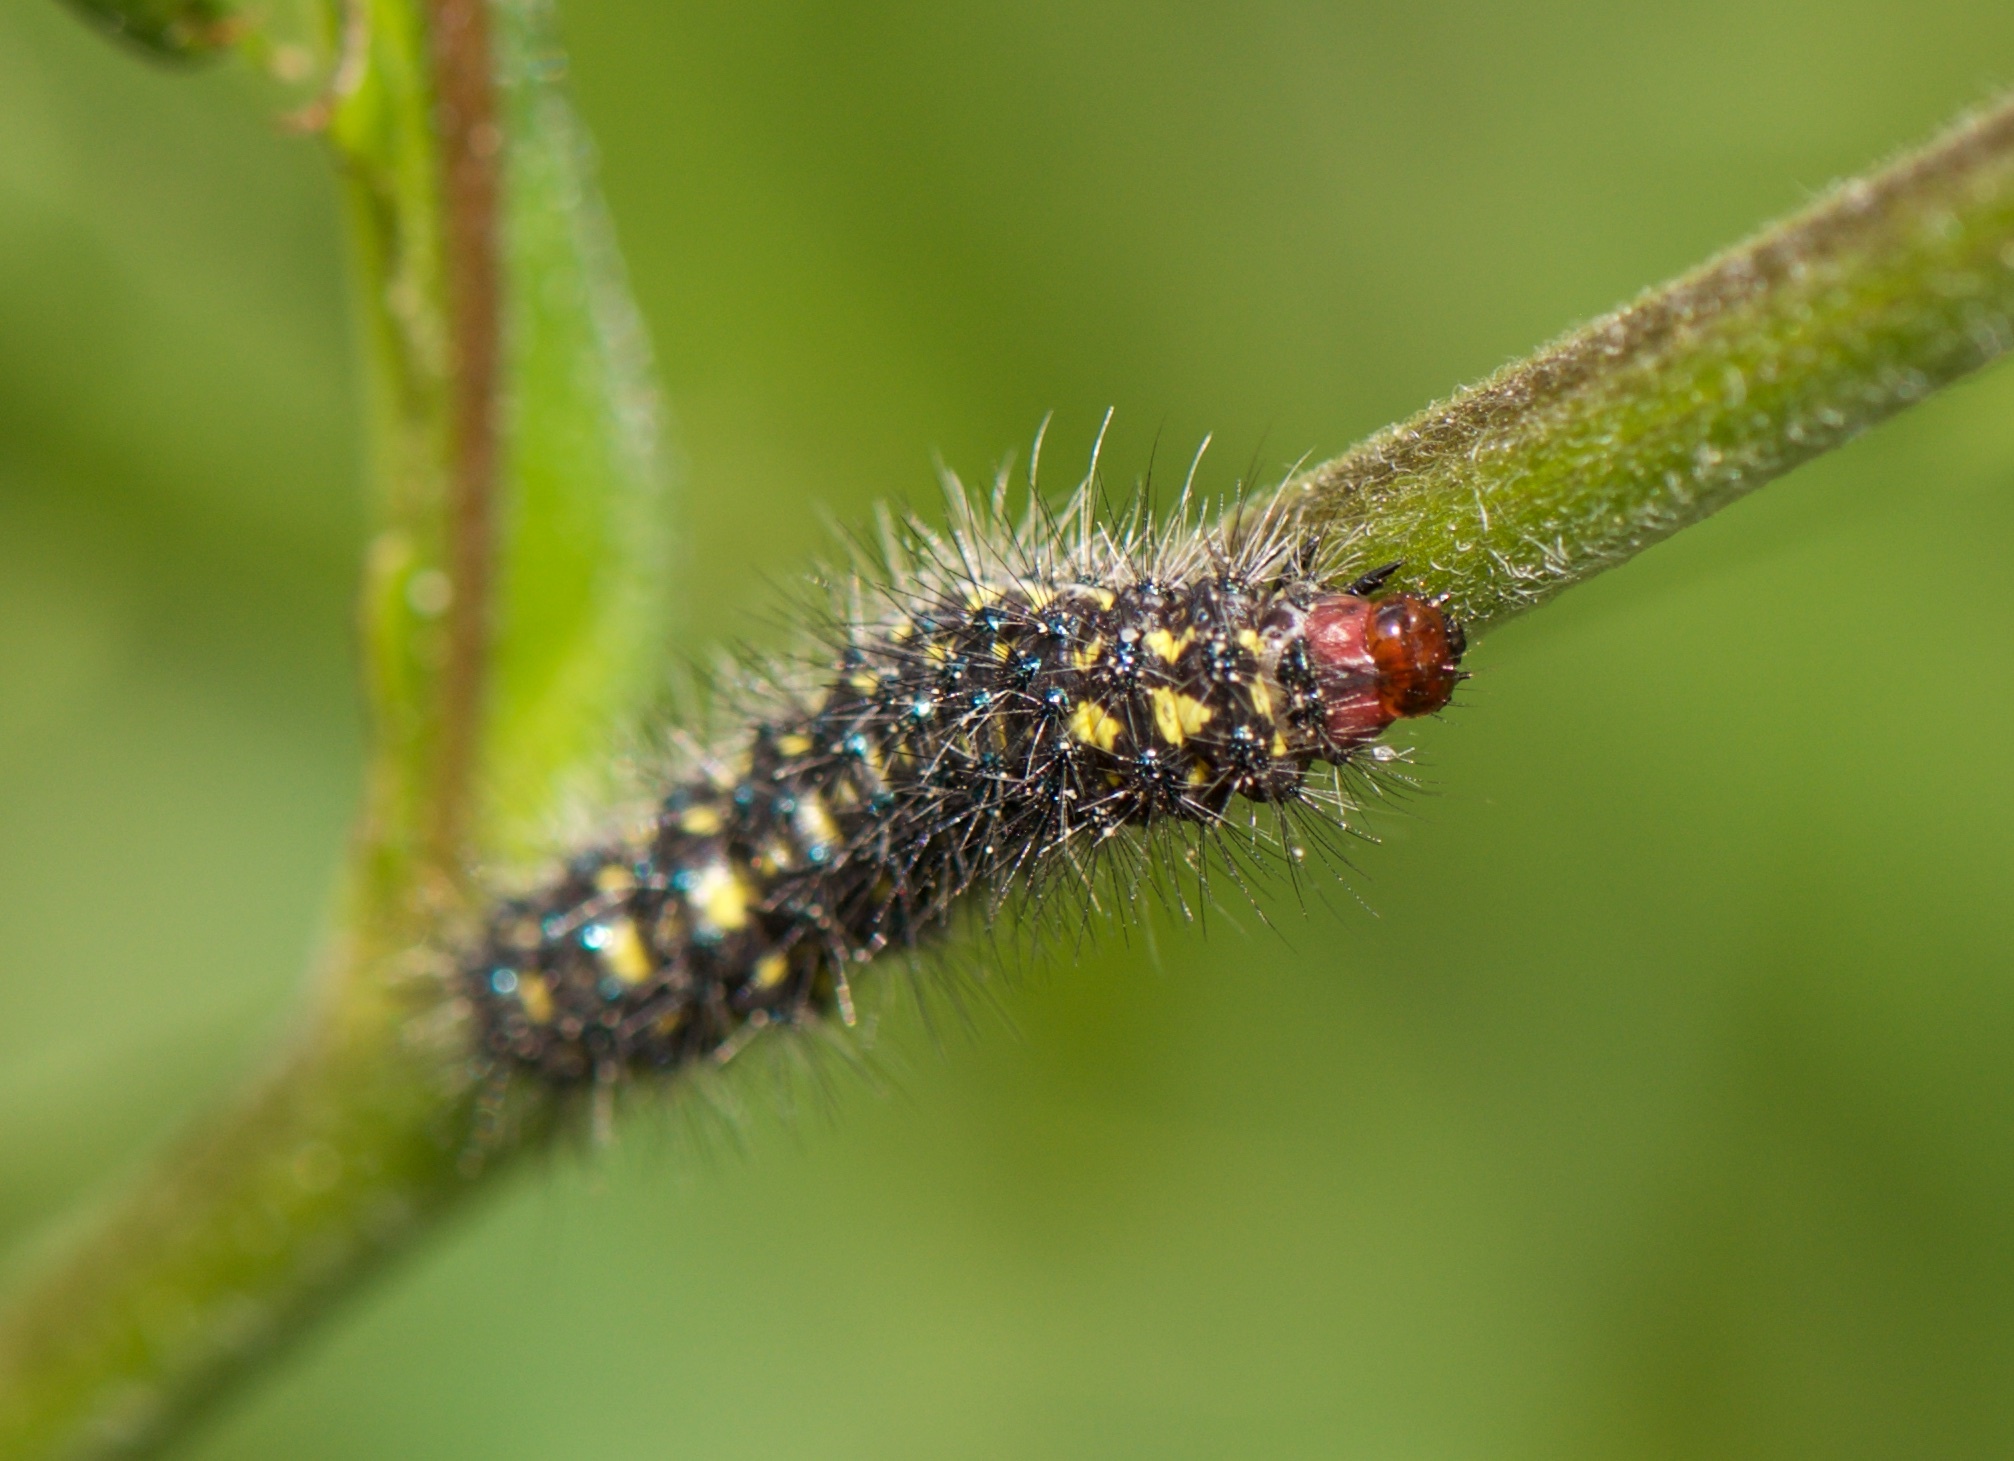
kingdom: Animalia
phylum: Arthropoda
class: Insecta
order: Lepidoptera
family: Erebidae
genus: Gnophaela
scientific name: Gnophaela vermiculata
